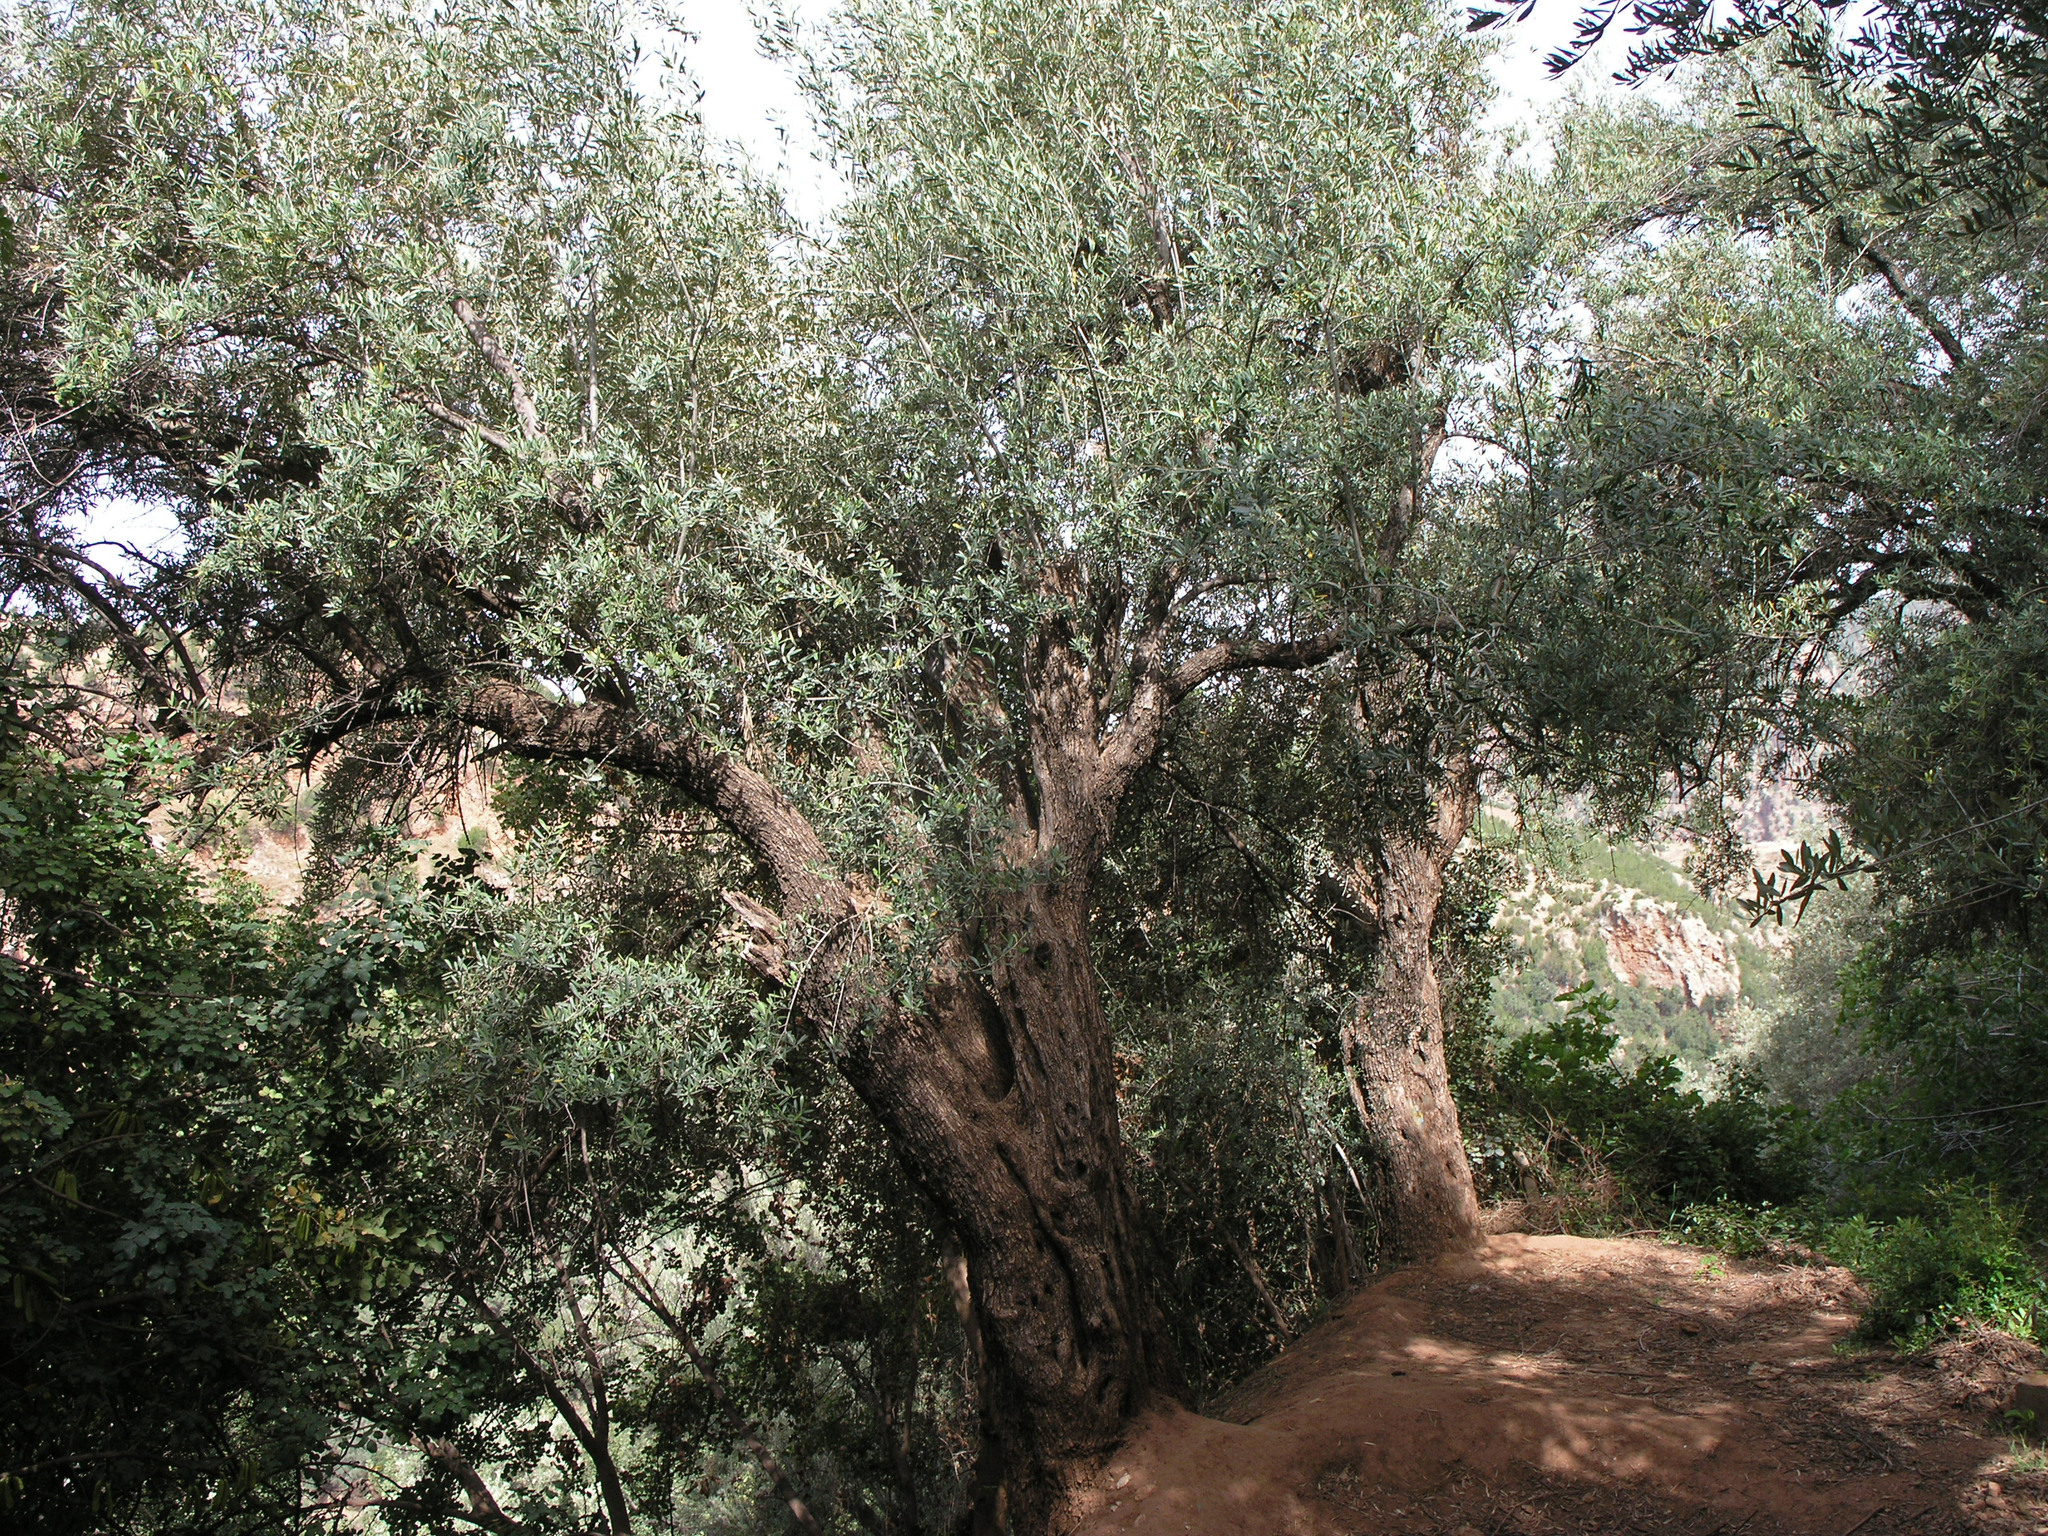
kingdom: Plantae
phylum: Tracheophyta
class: Magnoliopsida
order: Lamiales
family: Oleaceae
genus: Olea
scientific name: Olea europaea
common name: Olive
